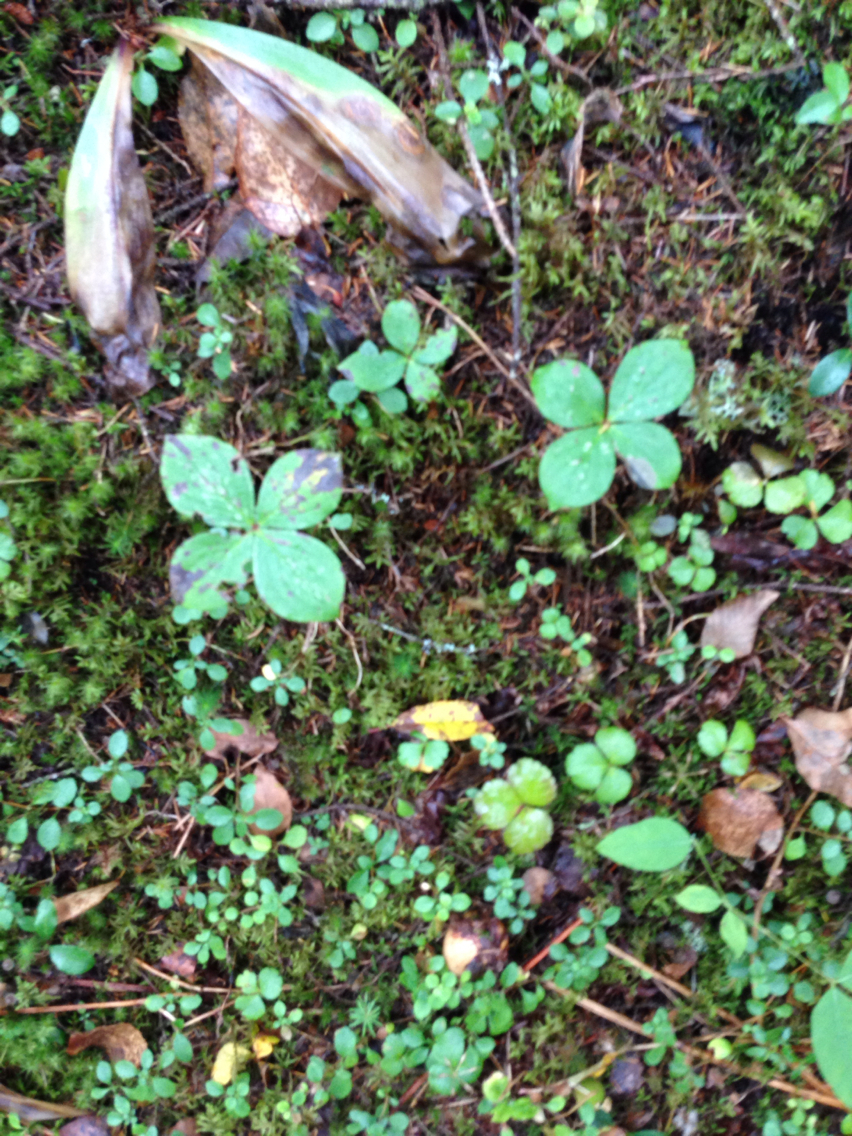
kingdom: Plantae
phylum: Tracheophyta
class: Magnoliopsida
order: Cornales
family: Cornaceae
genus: Cornus
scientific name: Cornus canadensis
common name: Creeping dogwood
